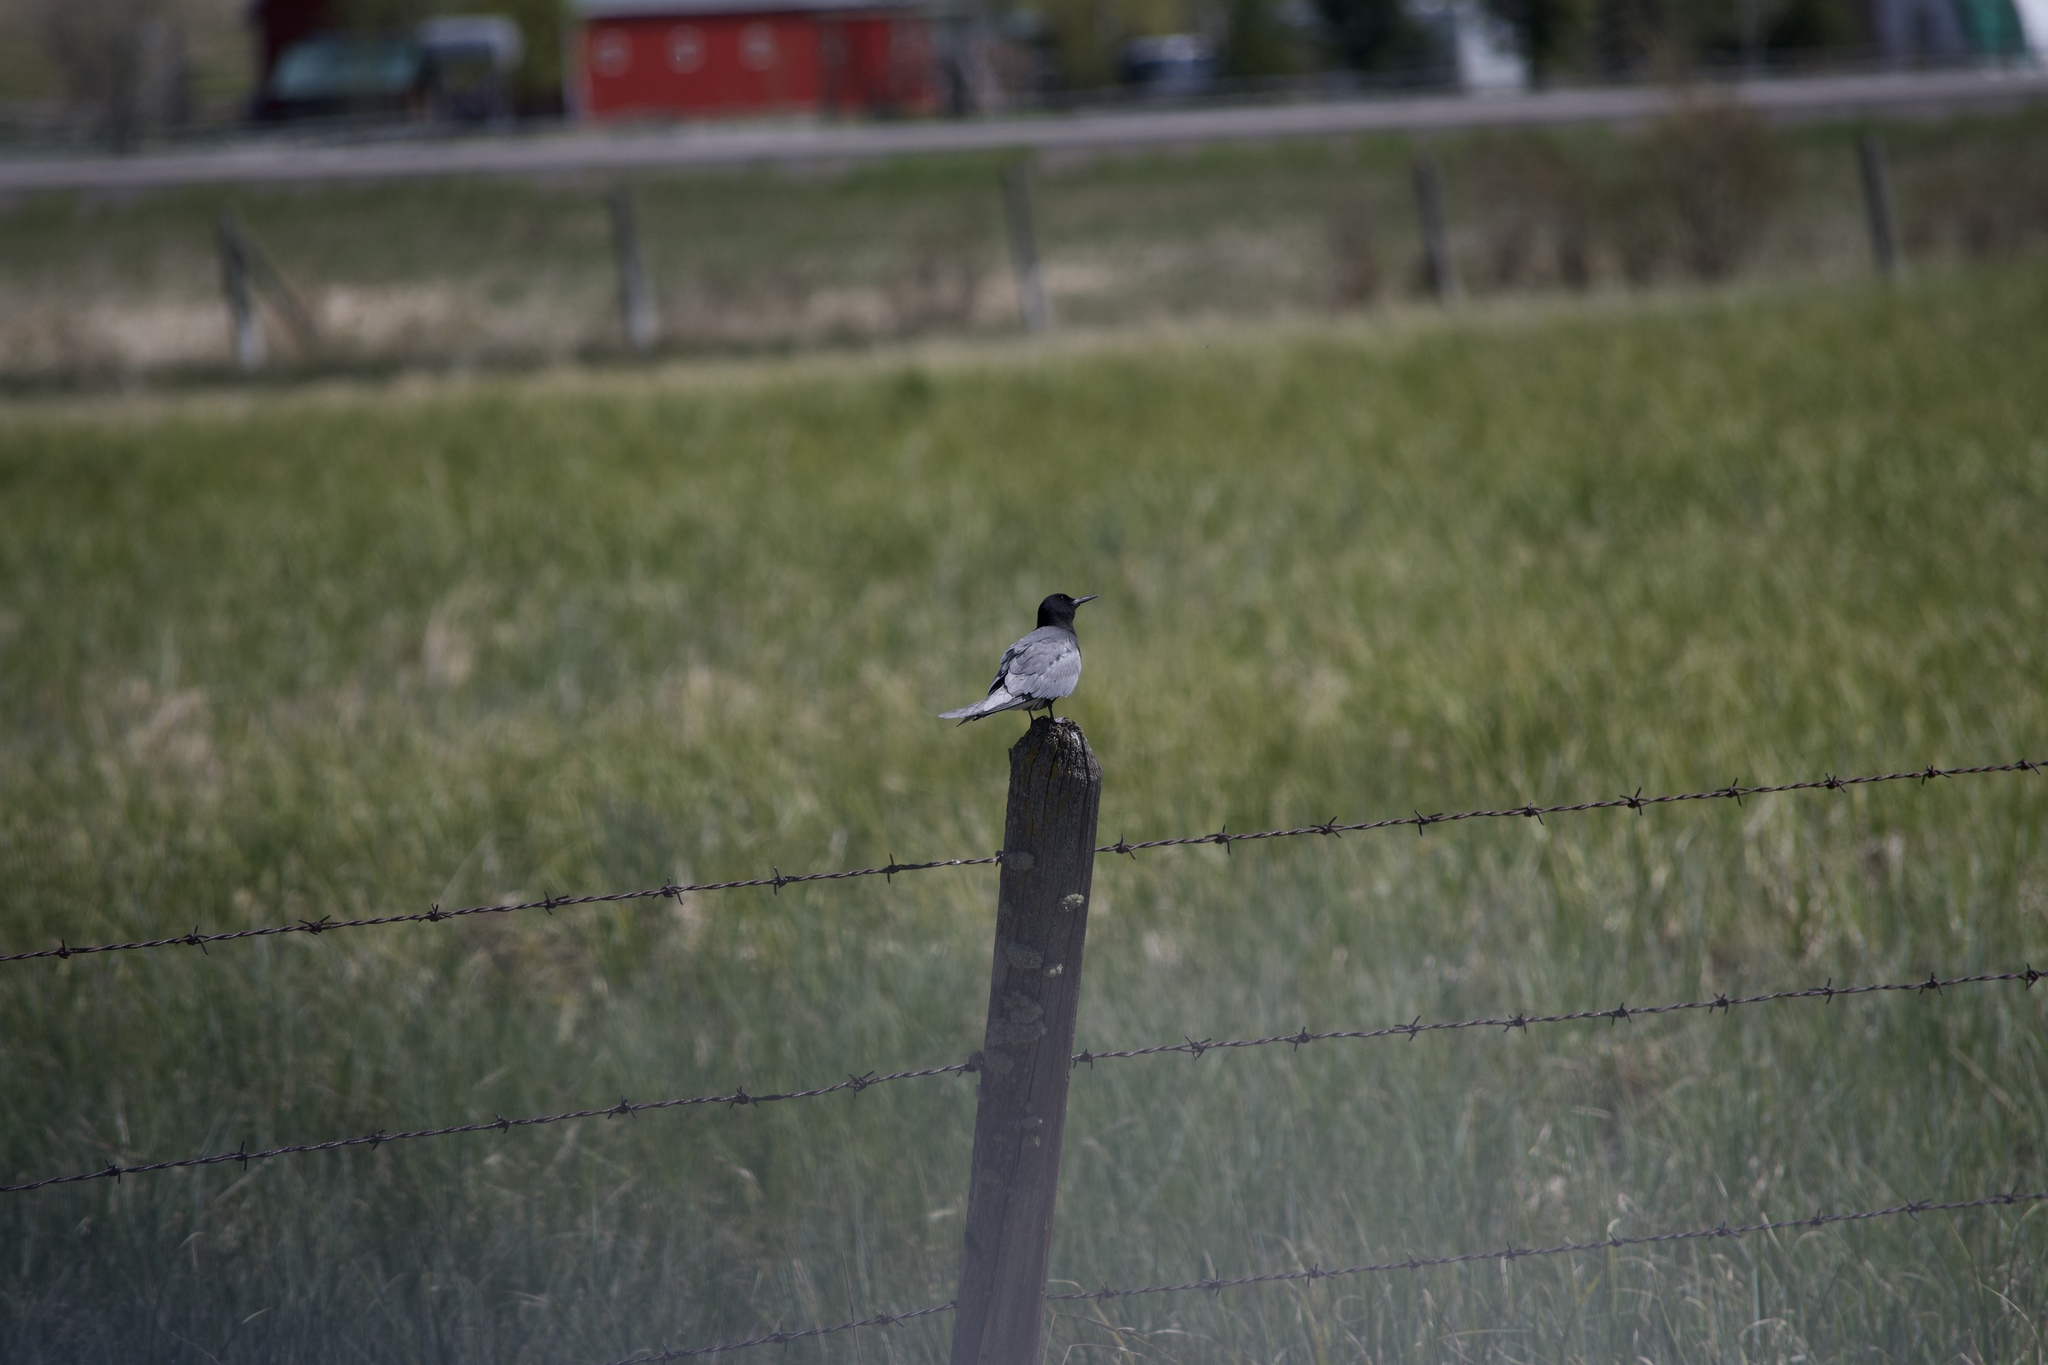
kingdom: Animalia
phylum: Chordata
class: Aves
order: Charadriiformes
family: Laridae
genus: Chlidonias
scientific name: Chlidonias niger
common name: Black tern
